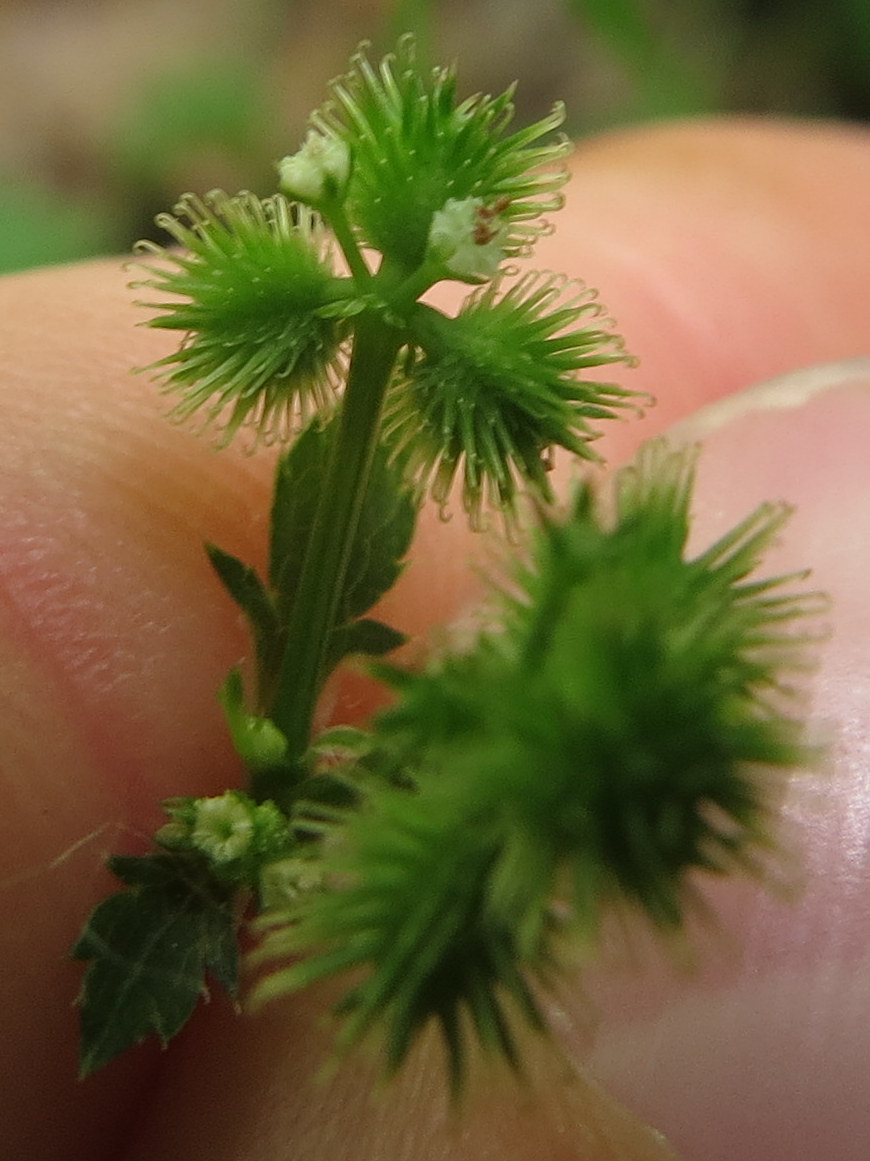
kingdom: Plantae
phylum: Tracheophyta
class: Magnoliopsida
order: Apiales
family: Apiaceae
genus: Sanicula
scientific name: Sanicula canadensis
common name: Canada sanicle
